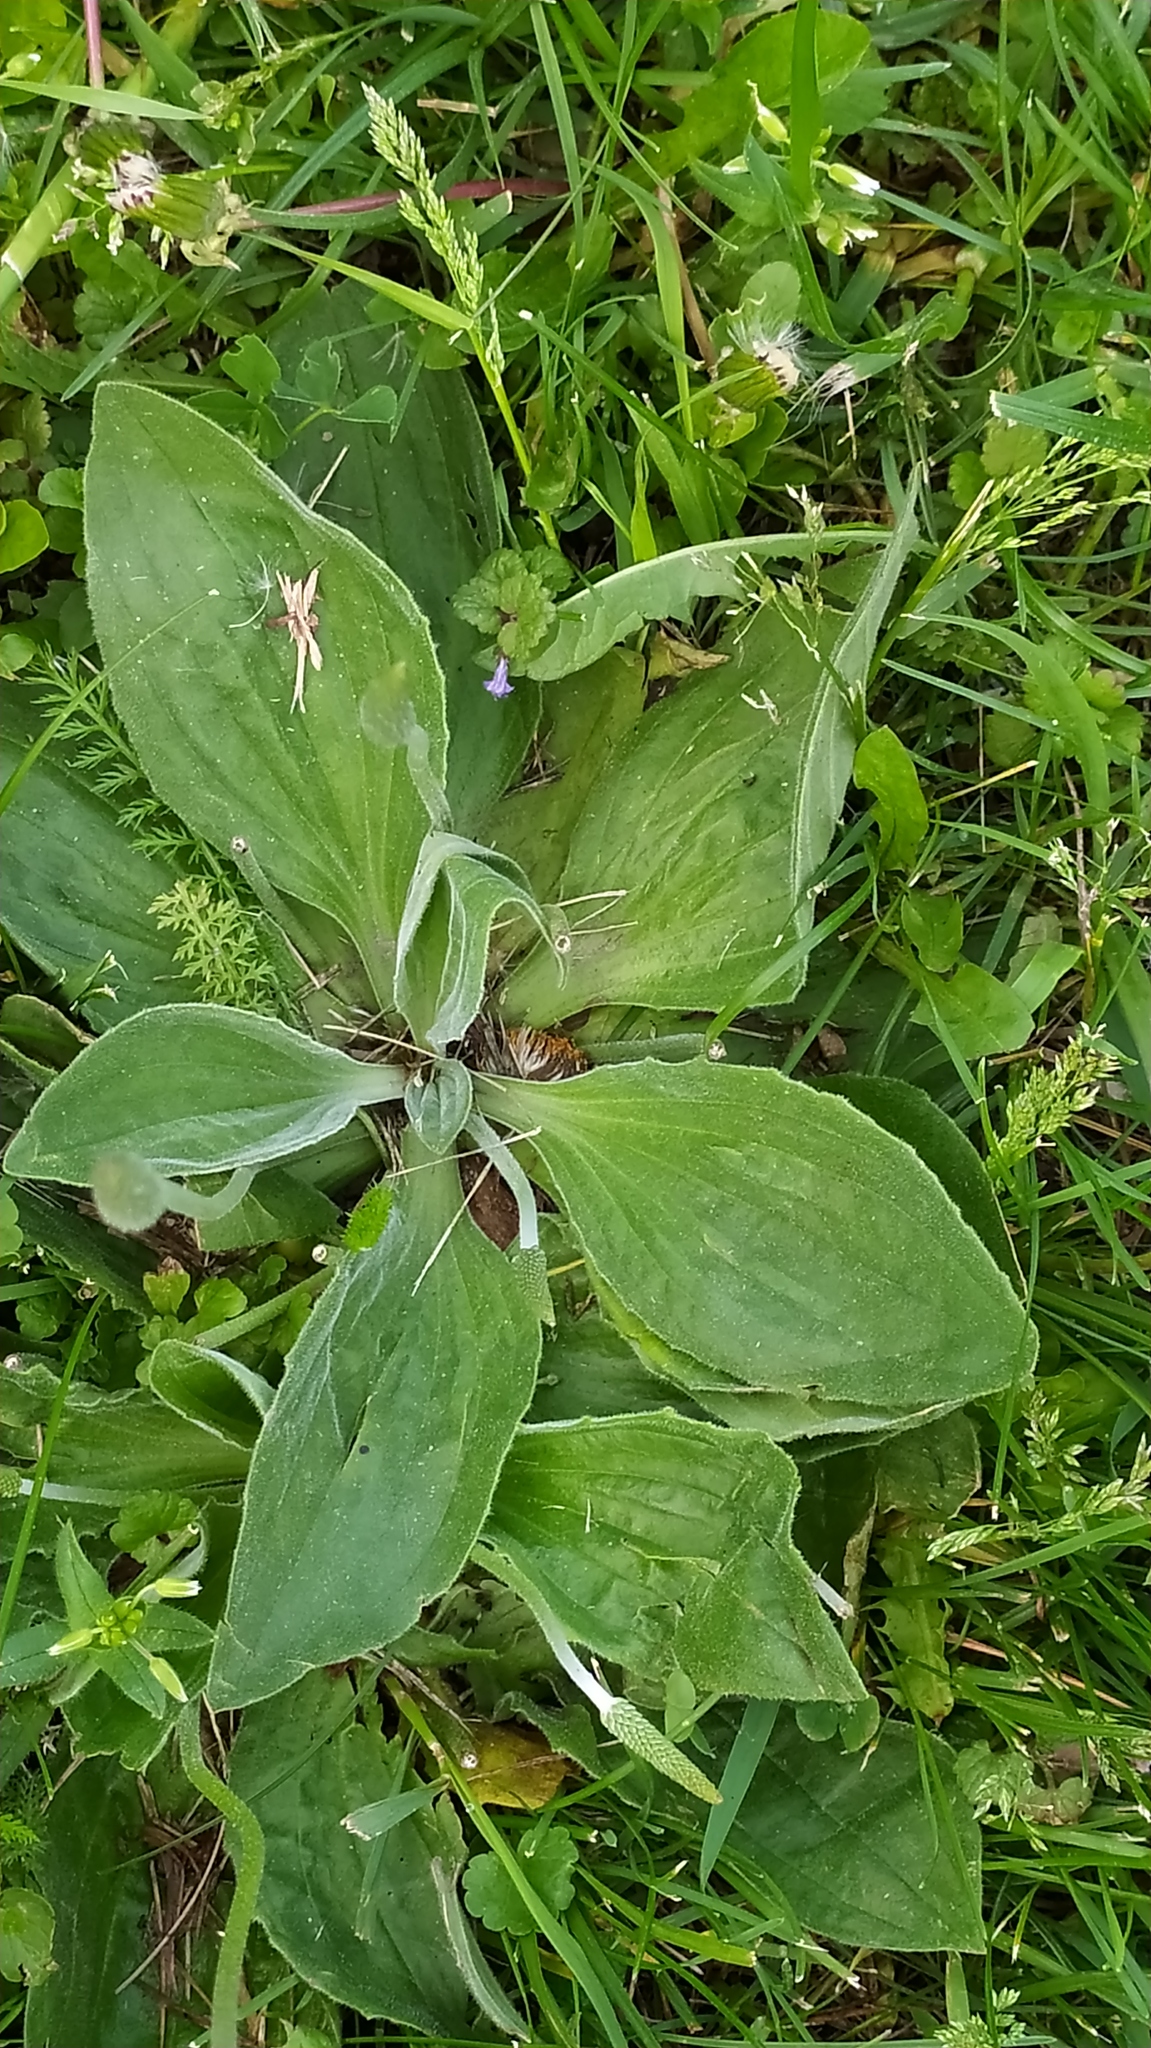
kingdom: Plantae
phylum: Tracheophyta
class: Magnoliopsida
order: Lamiales
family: Plantaginaceae
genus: Plantago
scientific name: Plantago media
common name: Hoary plantain
